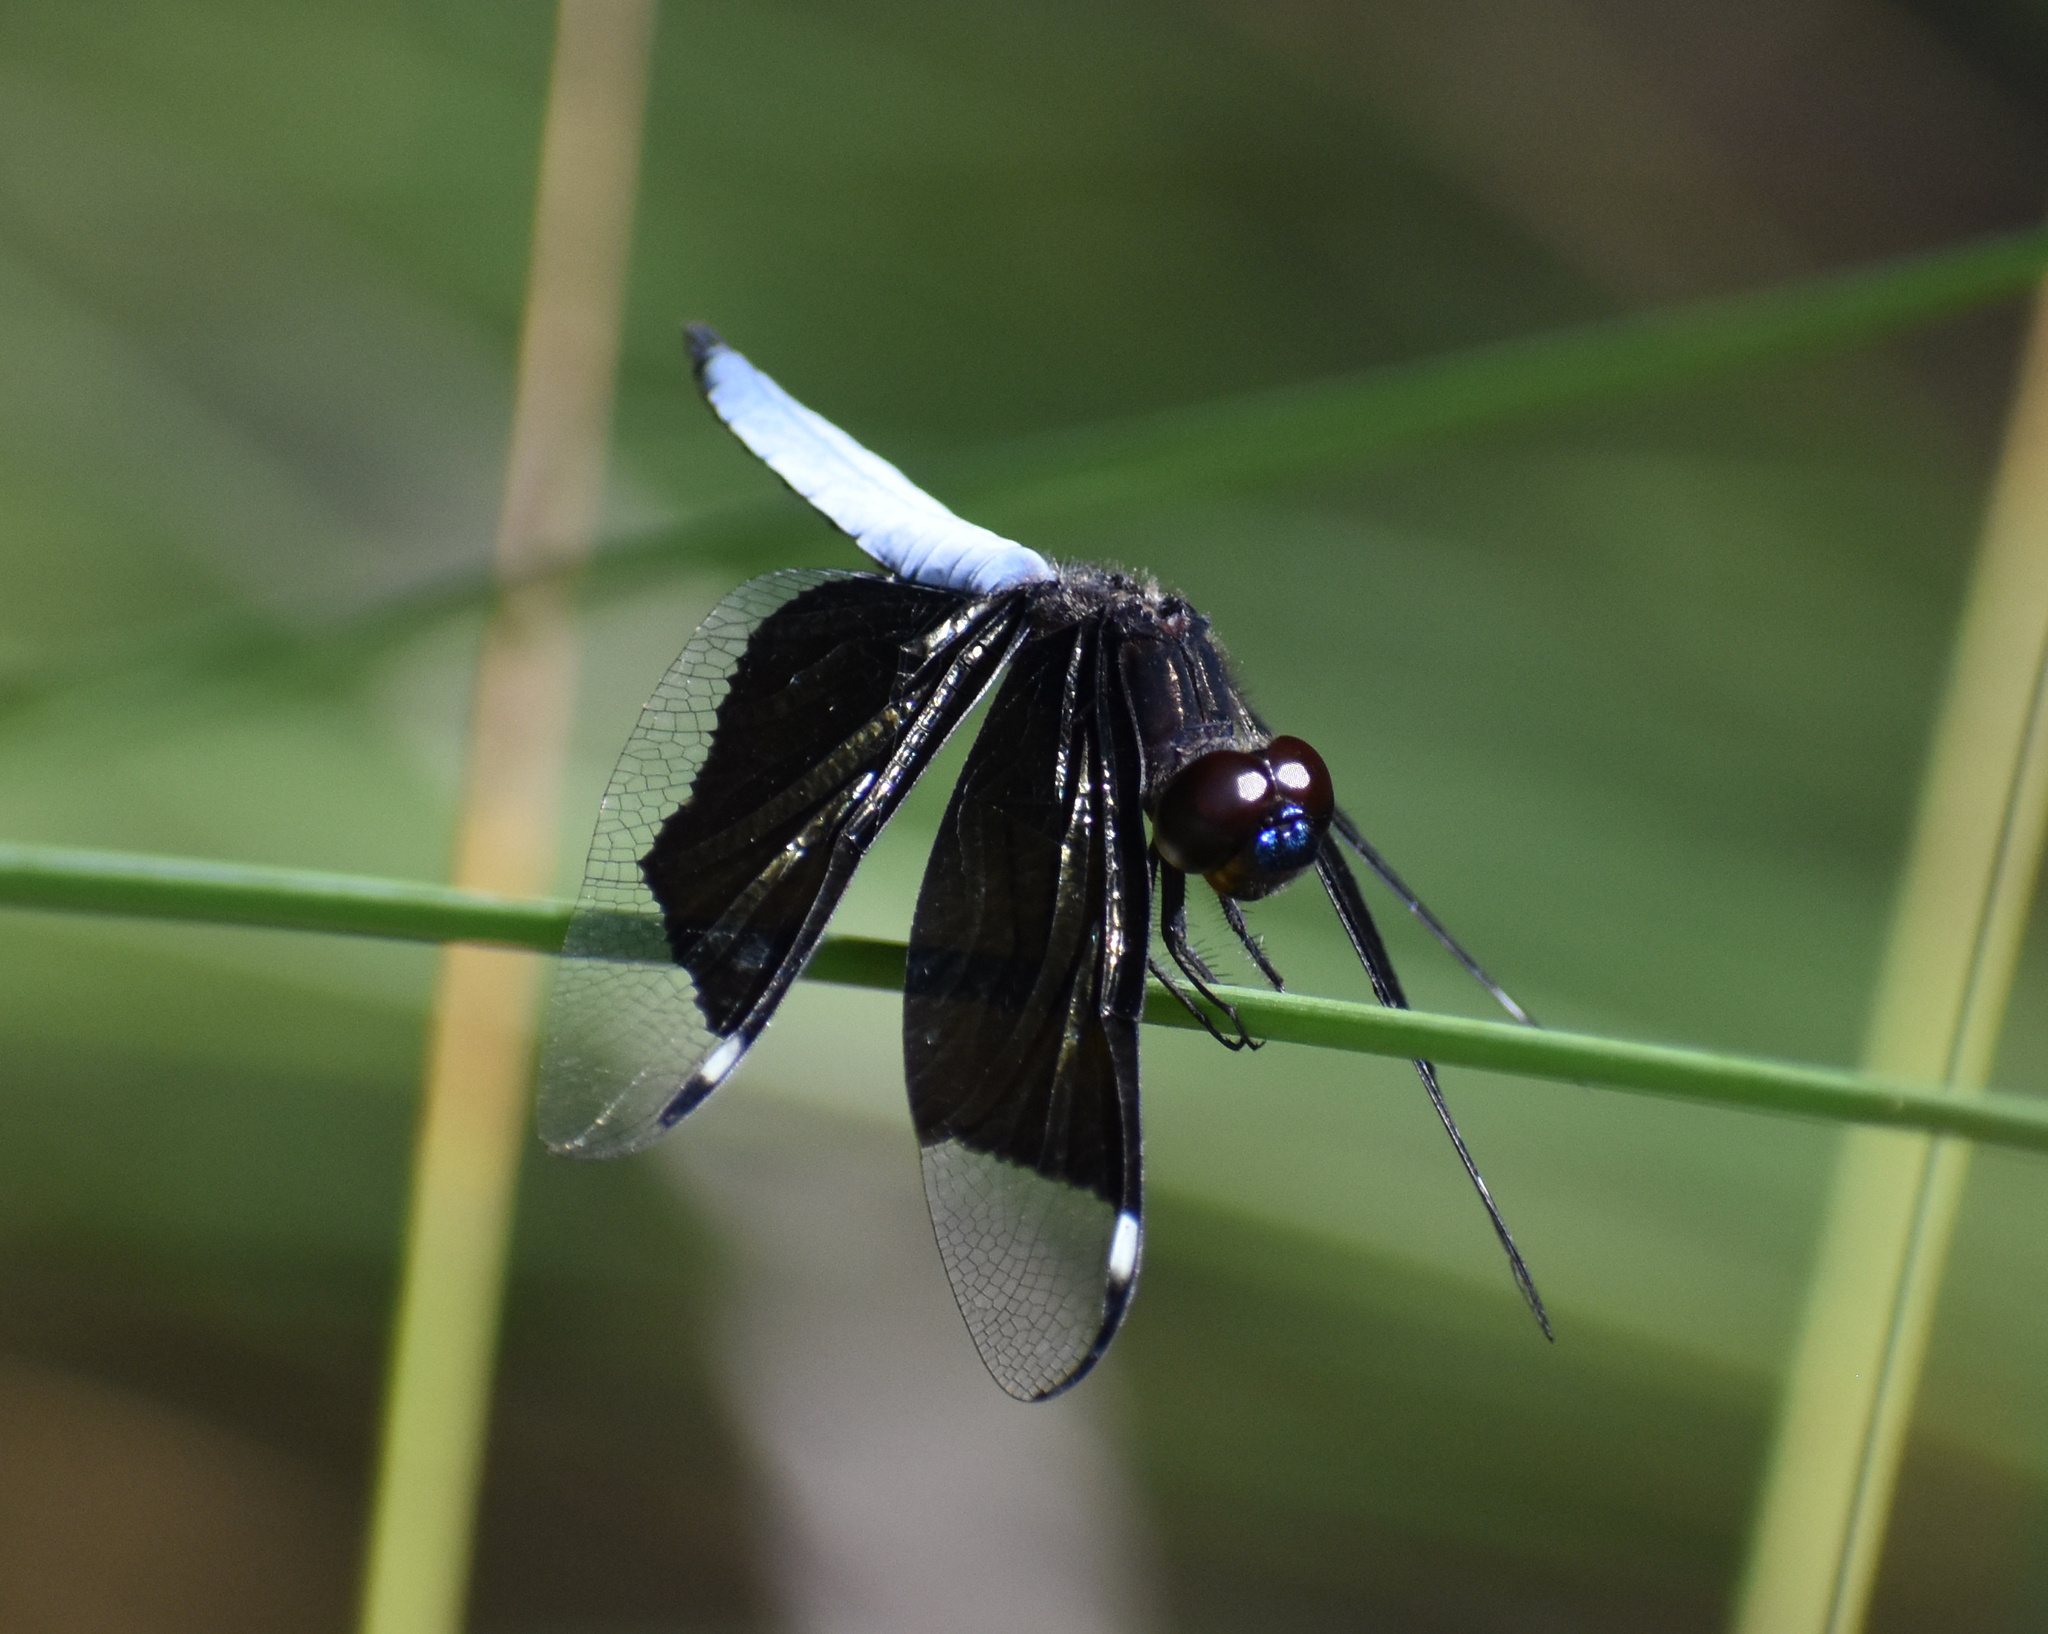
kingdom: Animalia
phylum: Arthropoda
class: Insecta
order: Odonata
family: Libellulidae
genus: Palpopleura
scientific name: Palpopleura lucia
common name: Lucia widow
